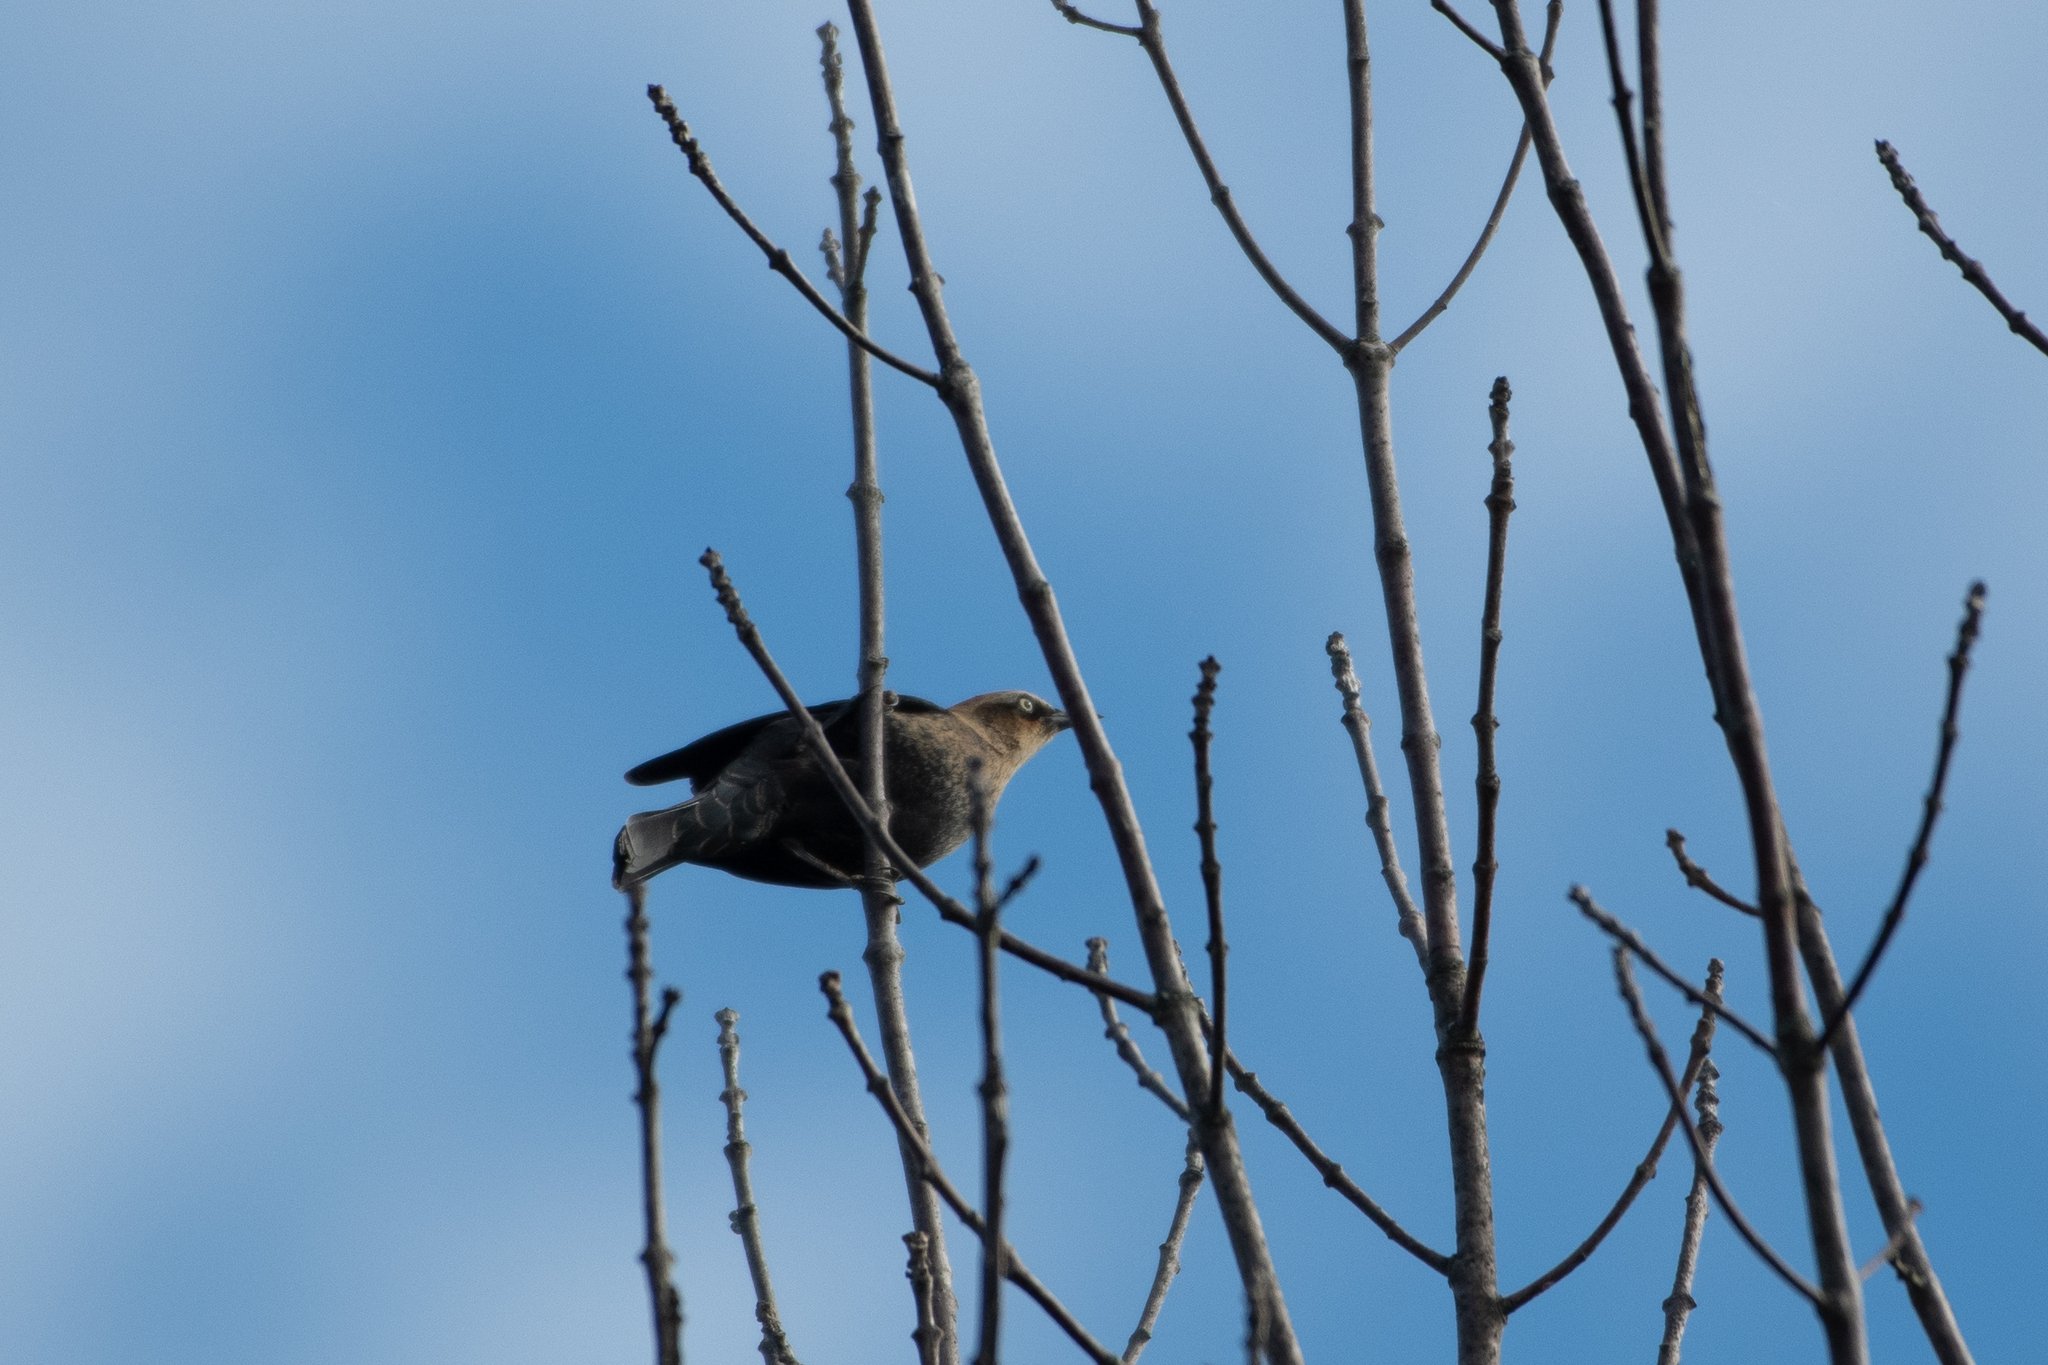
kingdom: Animalia
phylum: Chordata
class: Aves
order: Passeriformes
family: Icteridae
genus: Euphagus
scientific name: Euphagus carolinus
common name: Rusty blackbird
